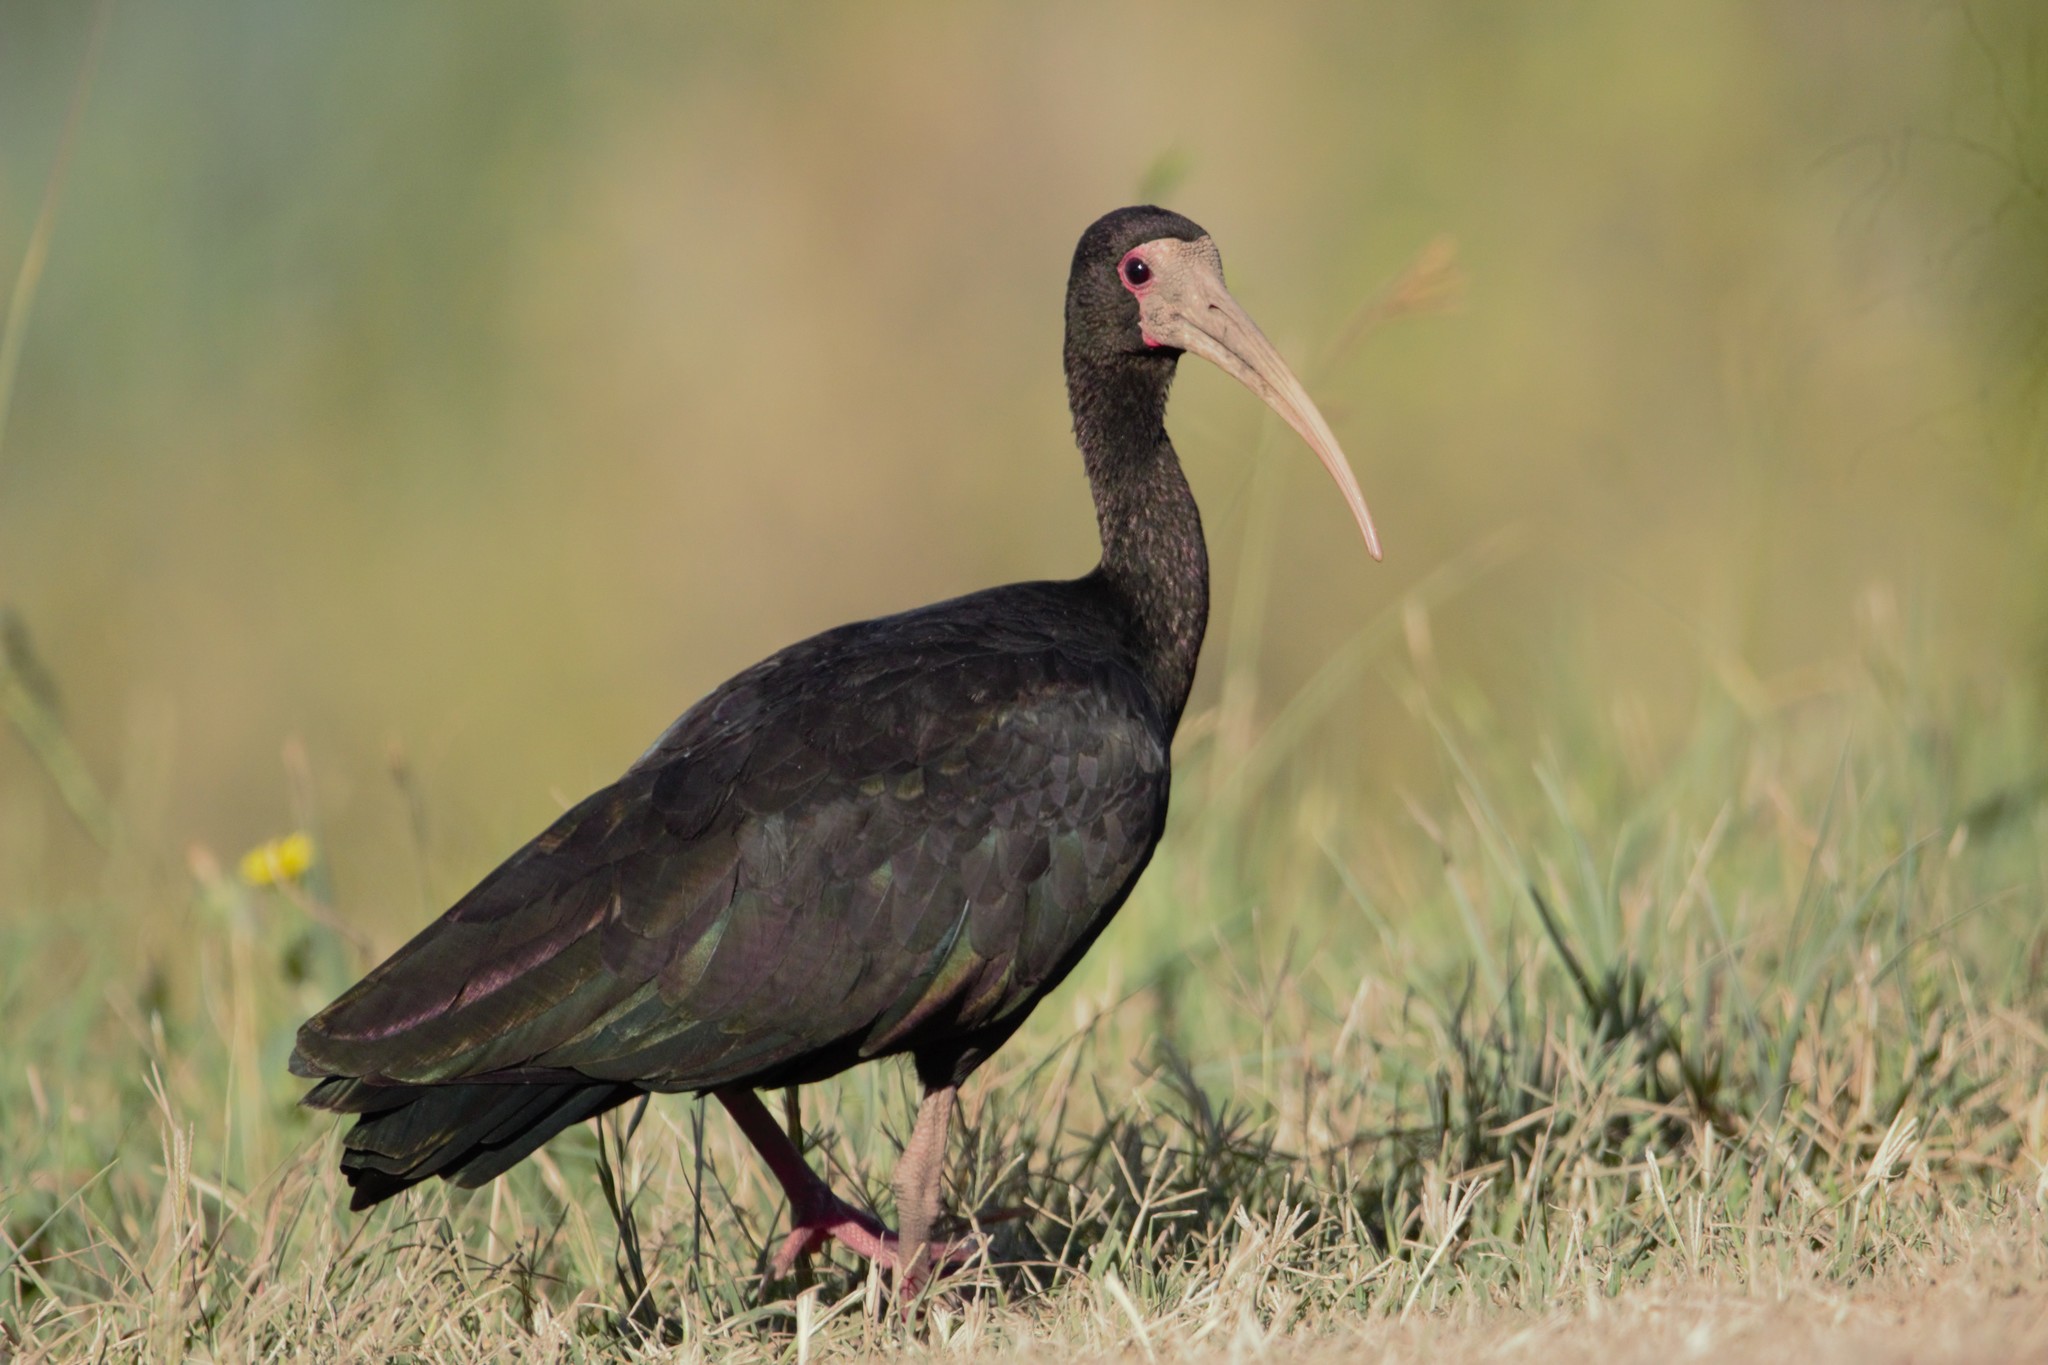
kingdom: Animalia
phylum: Chordata
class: Aves
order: Pelecaniformes
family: Threskiornithidae
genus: Phimosus
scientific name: Phimosus infuscatus
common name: Bare-faced ibis
